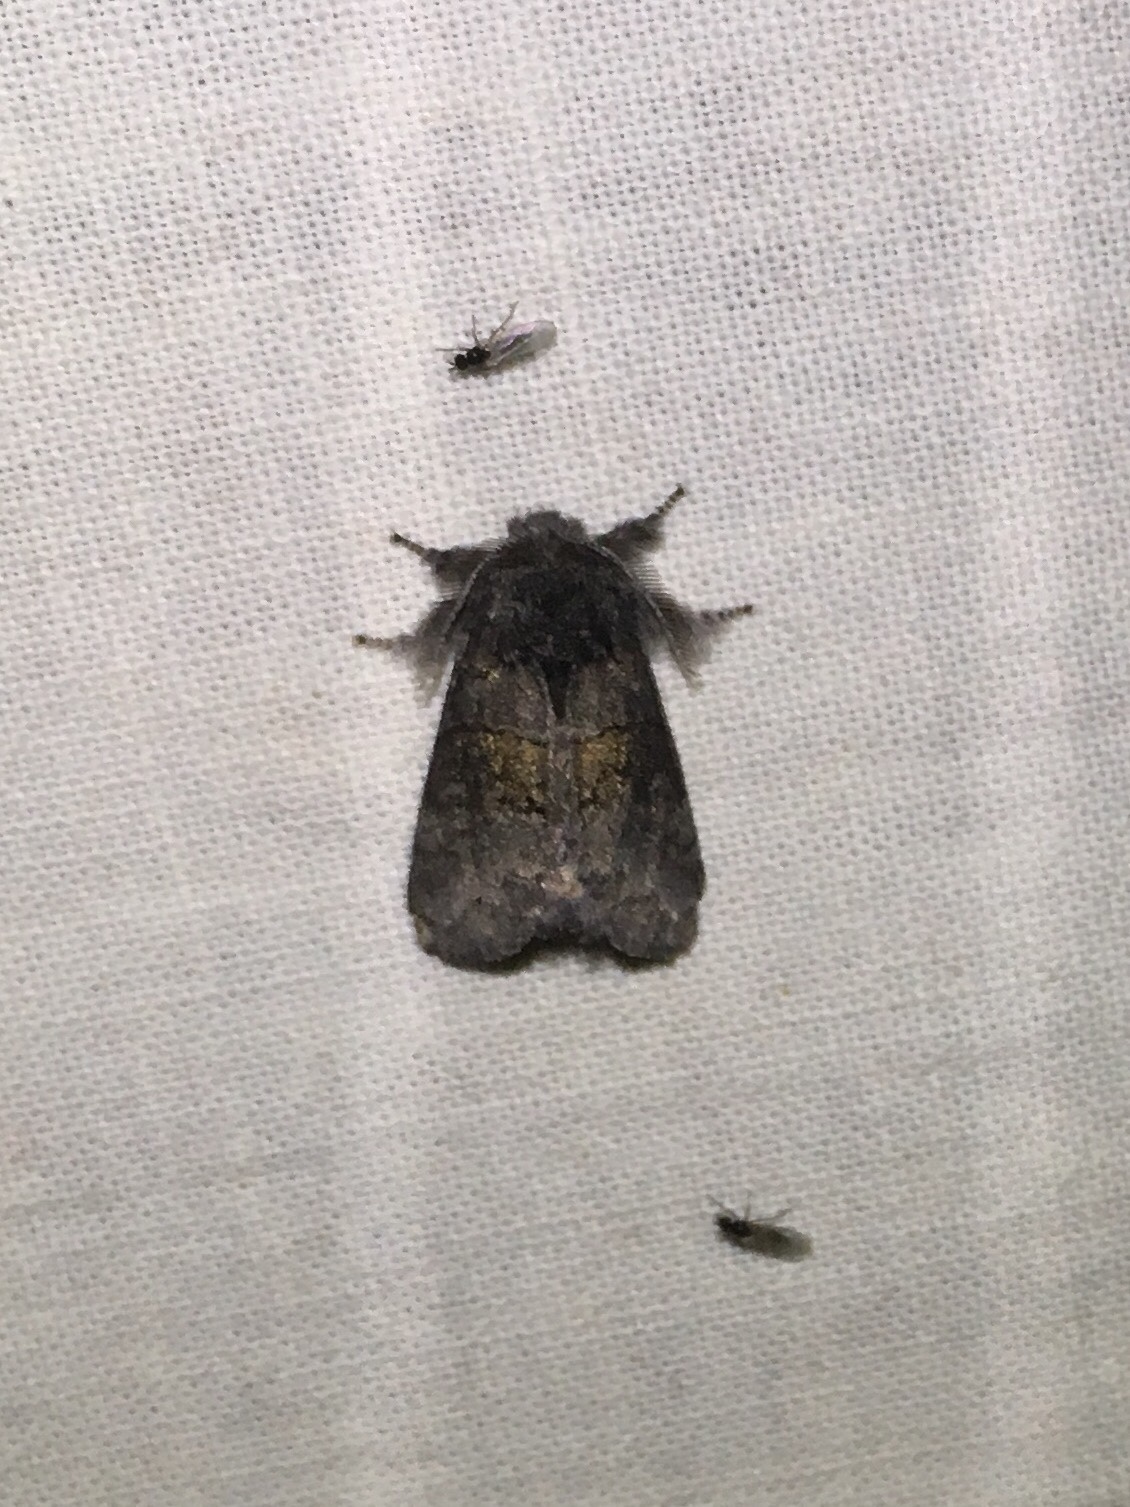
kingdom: Animalia
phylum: Arthropoda
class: Insecta
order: Lepidoptera
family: Notodontidae
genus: Gluphisia
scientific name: Gluphisia septentrionis
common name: Common gluphisia
